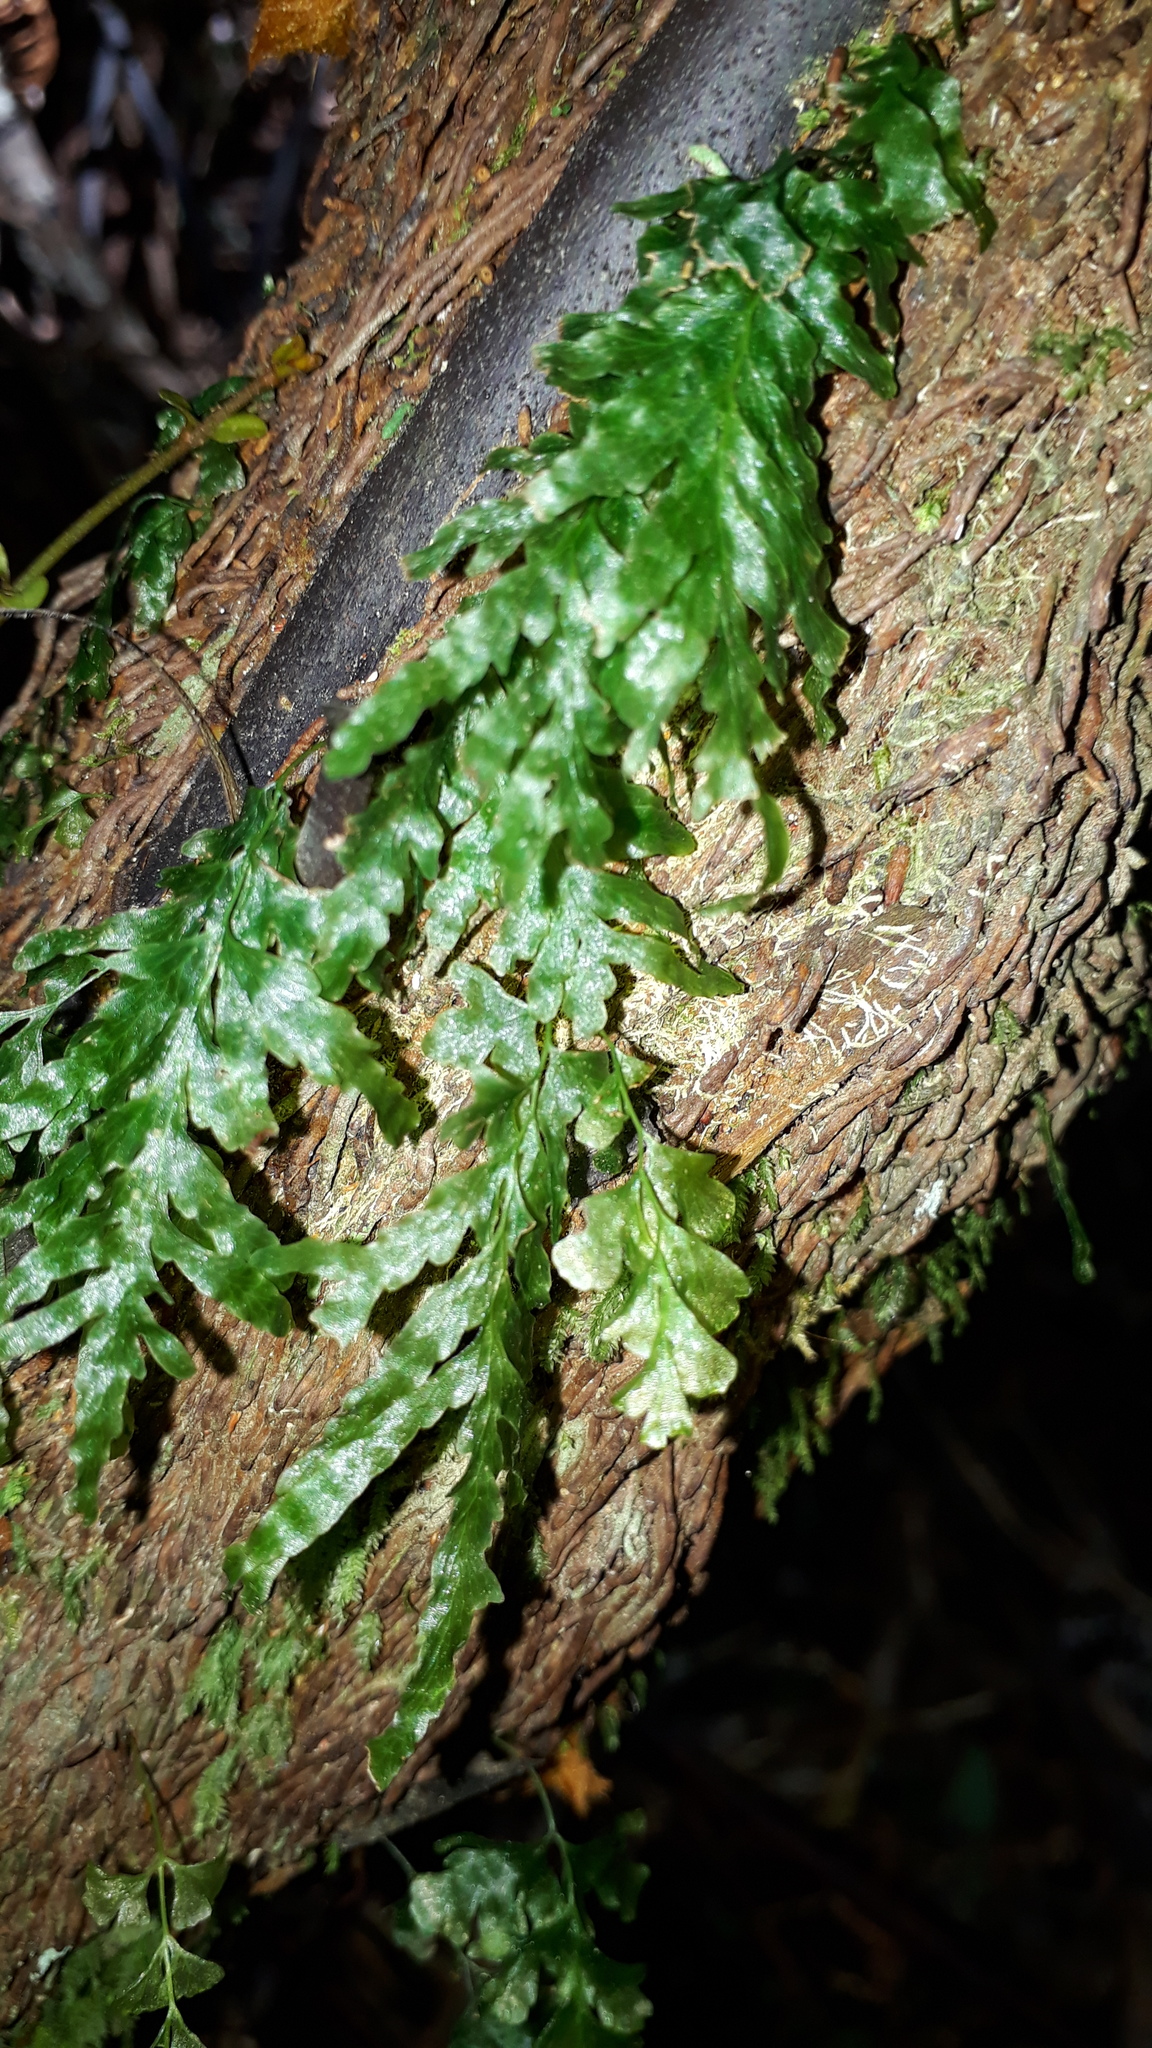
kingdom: Plantae
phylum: Tracheophyta
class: Polypodiopsida
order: Hymenophyllales
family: Hymenophyllaceae
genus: Polyphlebium
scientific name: Polyphlebium venosum
